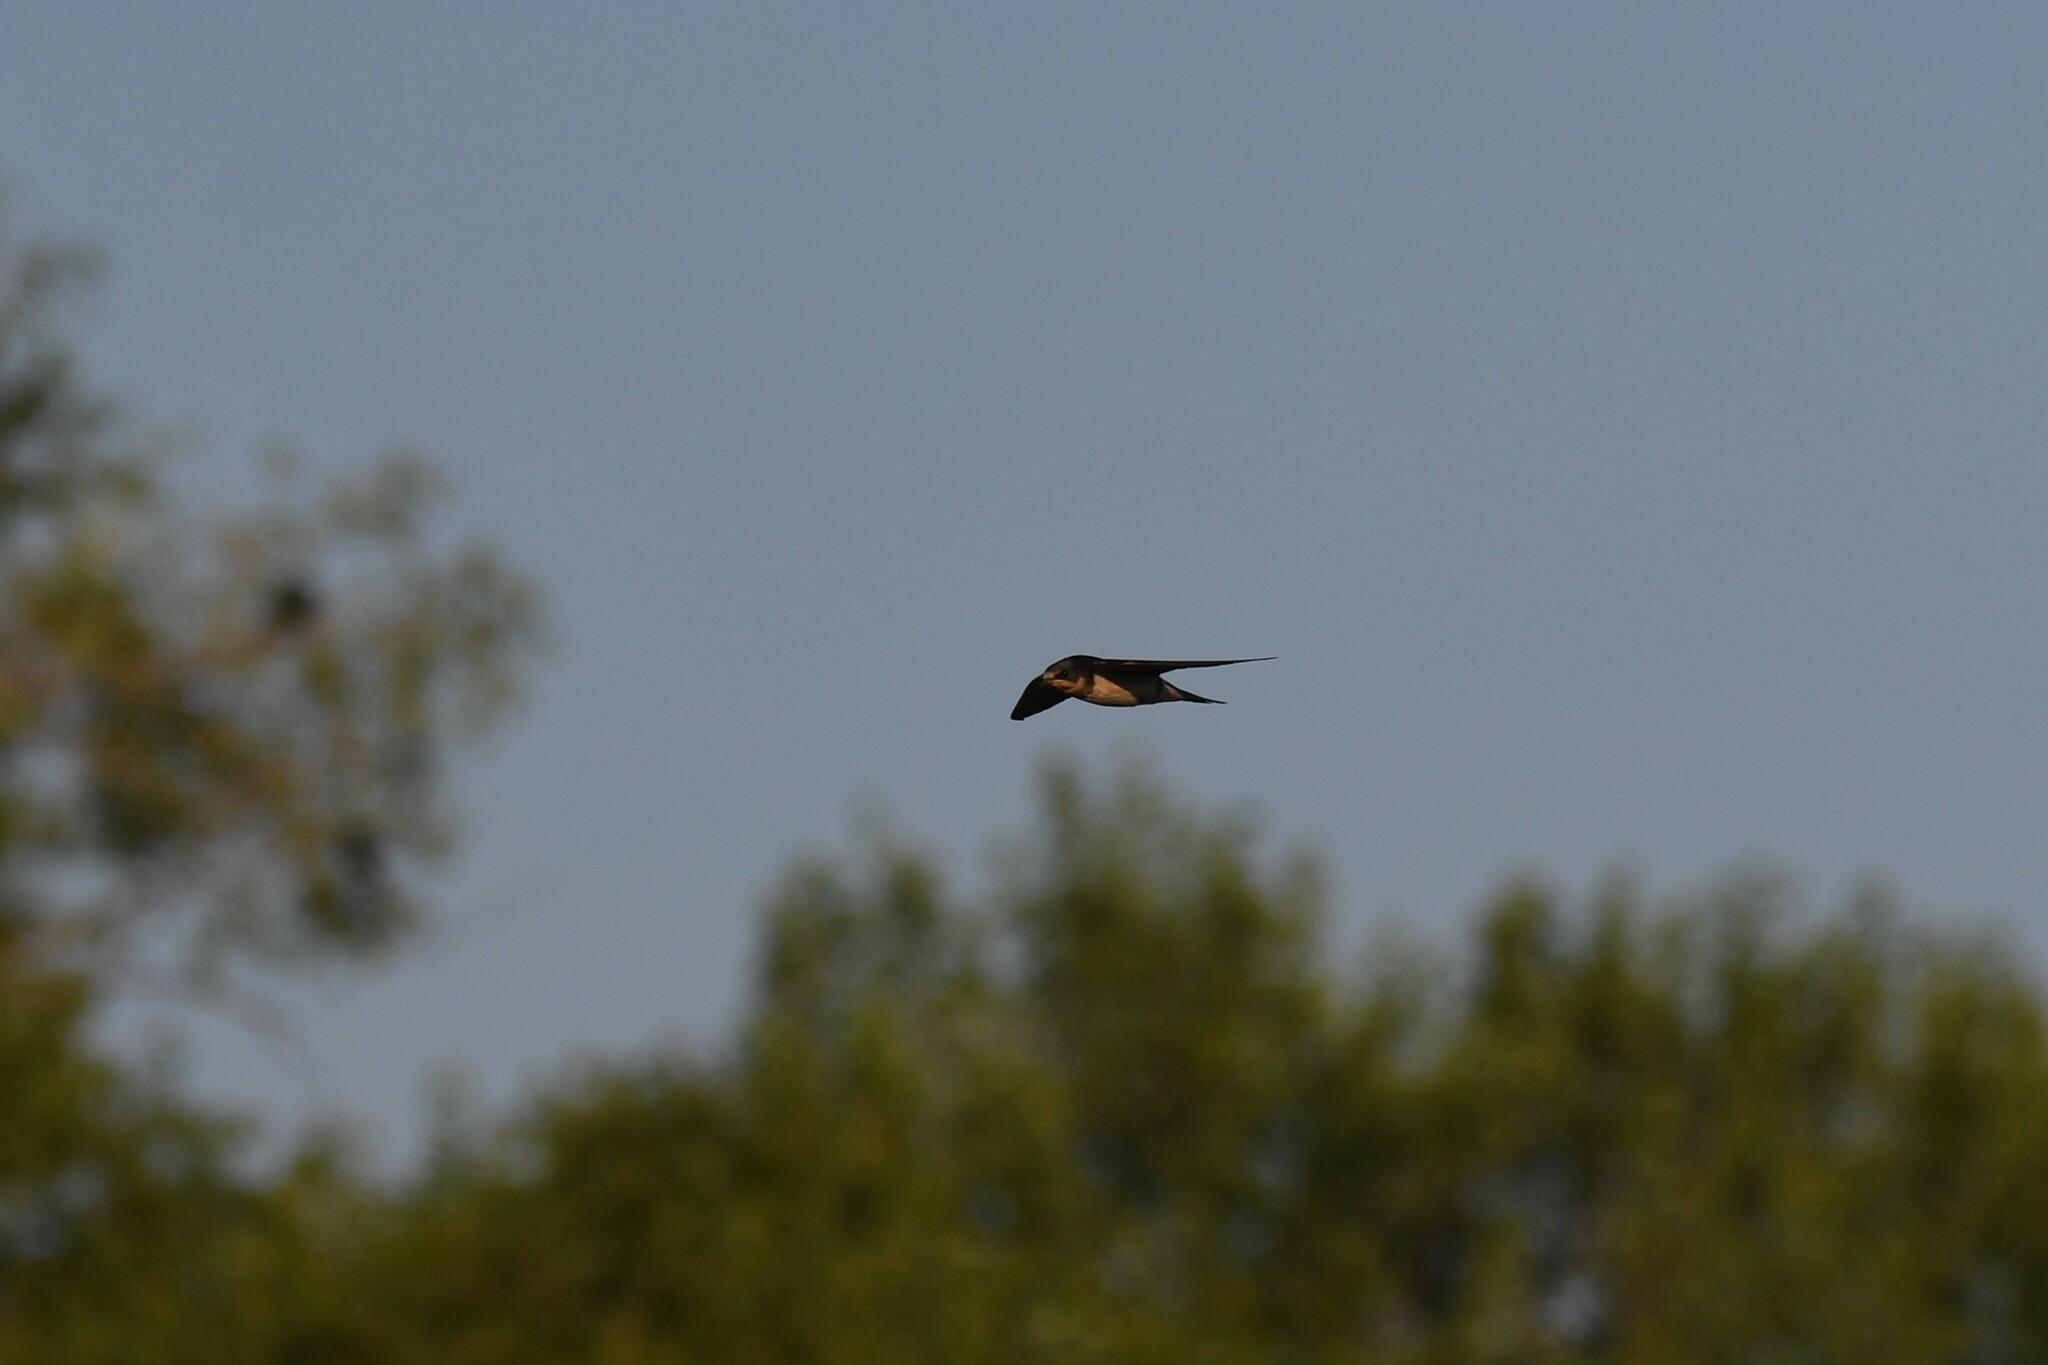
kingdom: Animalia
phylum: Chordata
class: Aves
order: Passeriformes
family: Hirundinidae
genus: Hirundo
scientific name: Hirundo rustica
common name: Barn swallow
